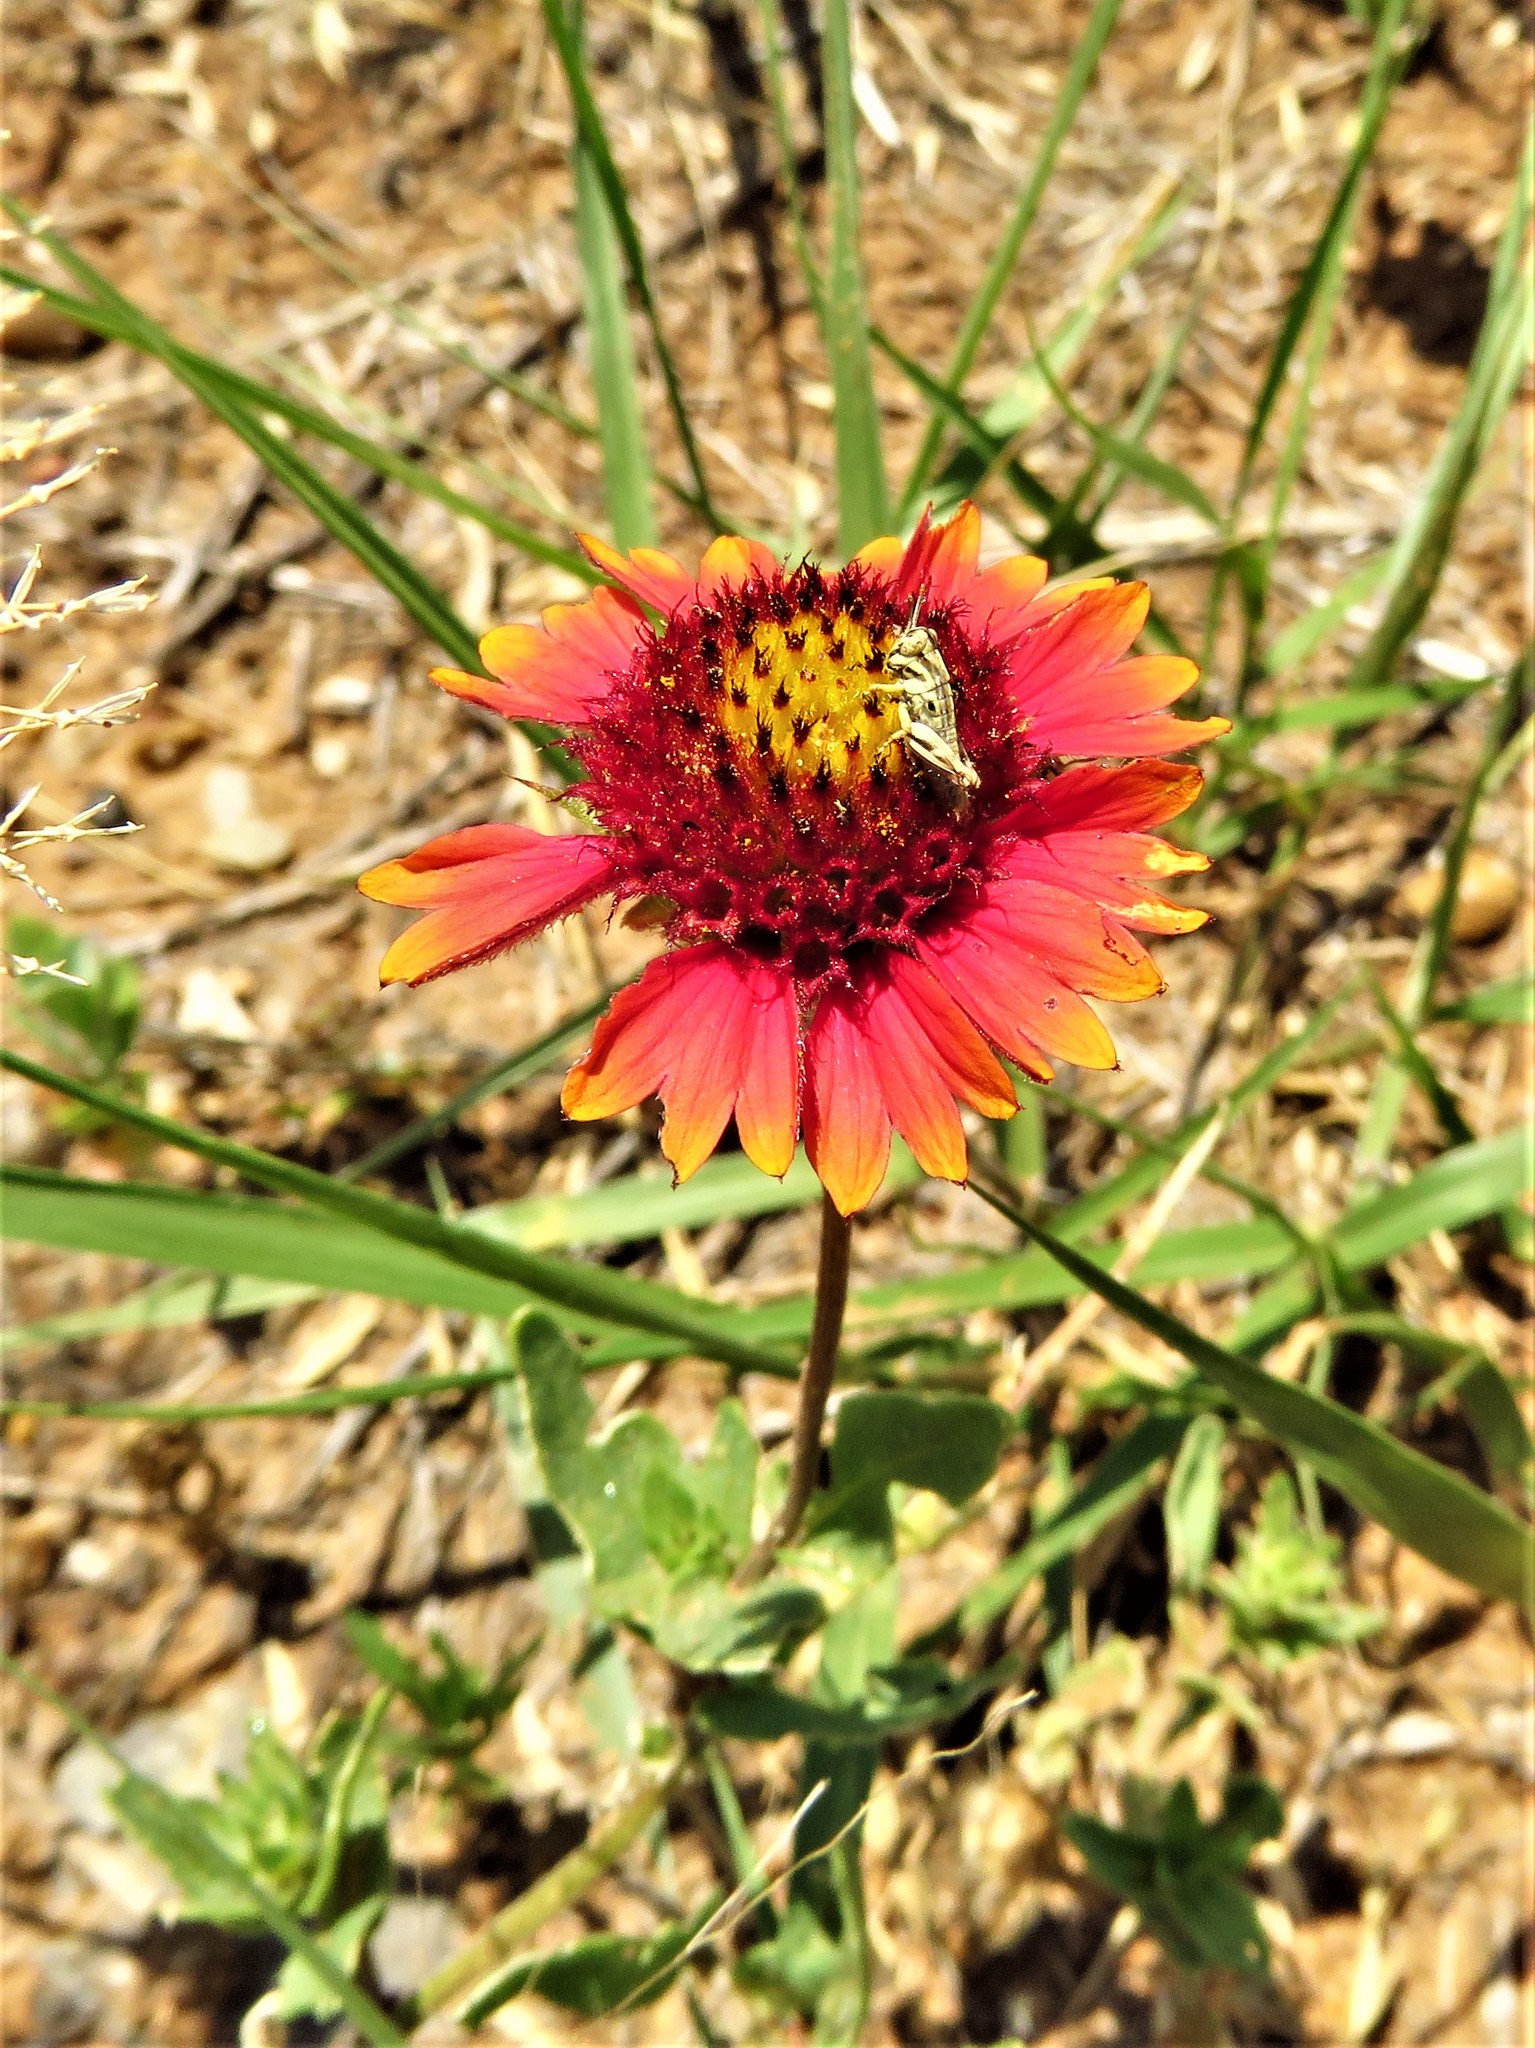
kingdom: Plantae
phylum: Tracheophyta
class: Magnoliopsida
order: Asterales
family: Asteraceae
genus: Gaillardia
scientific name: Gaillardia pulchella
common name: Firewheel
